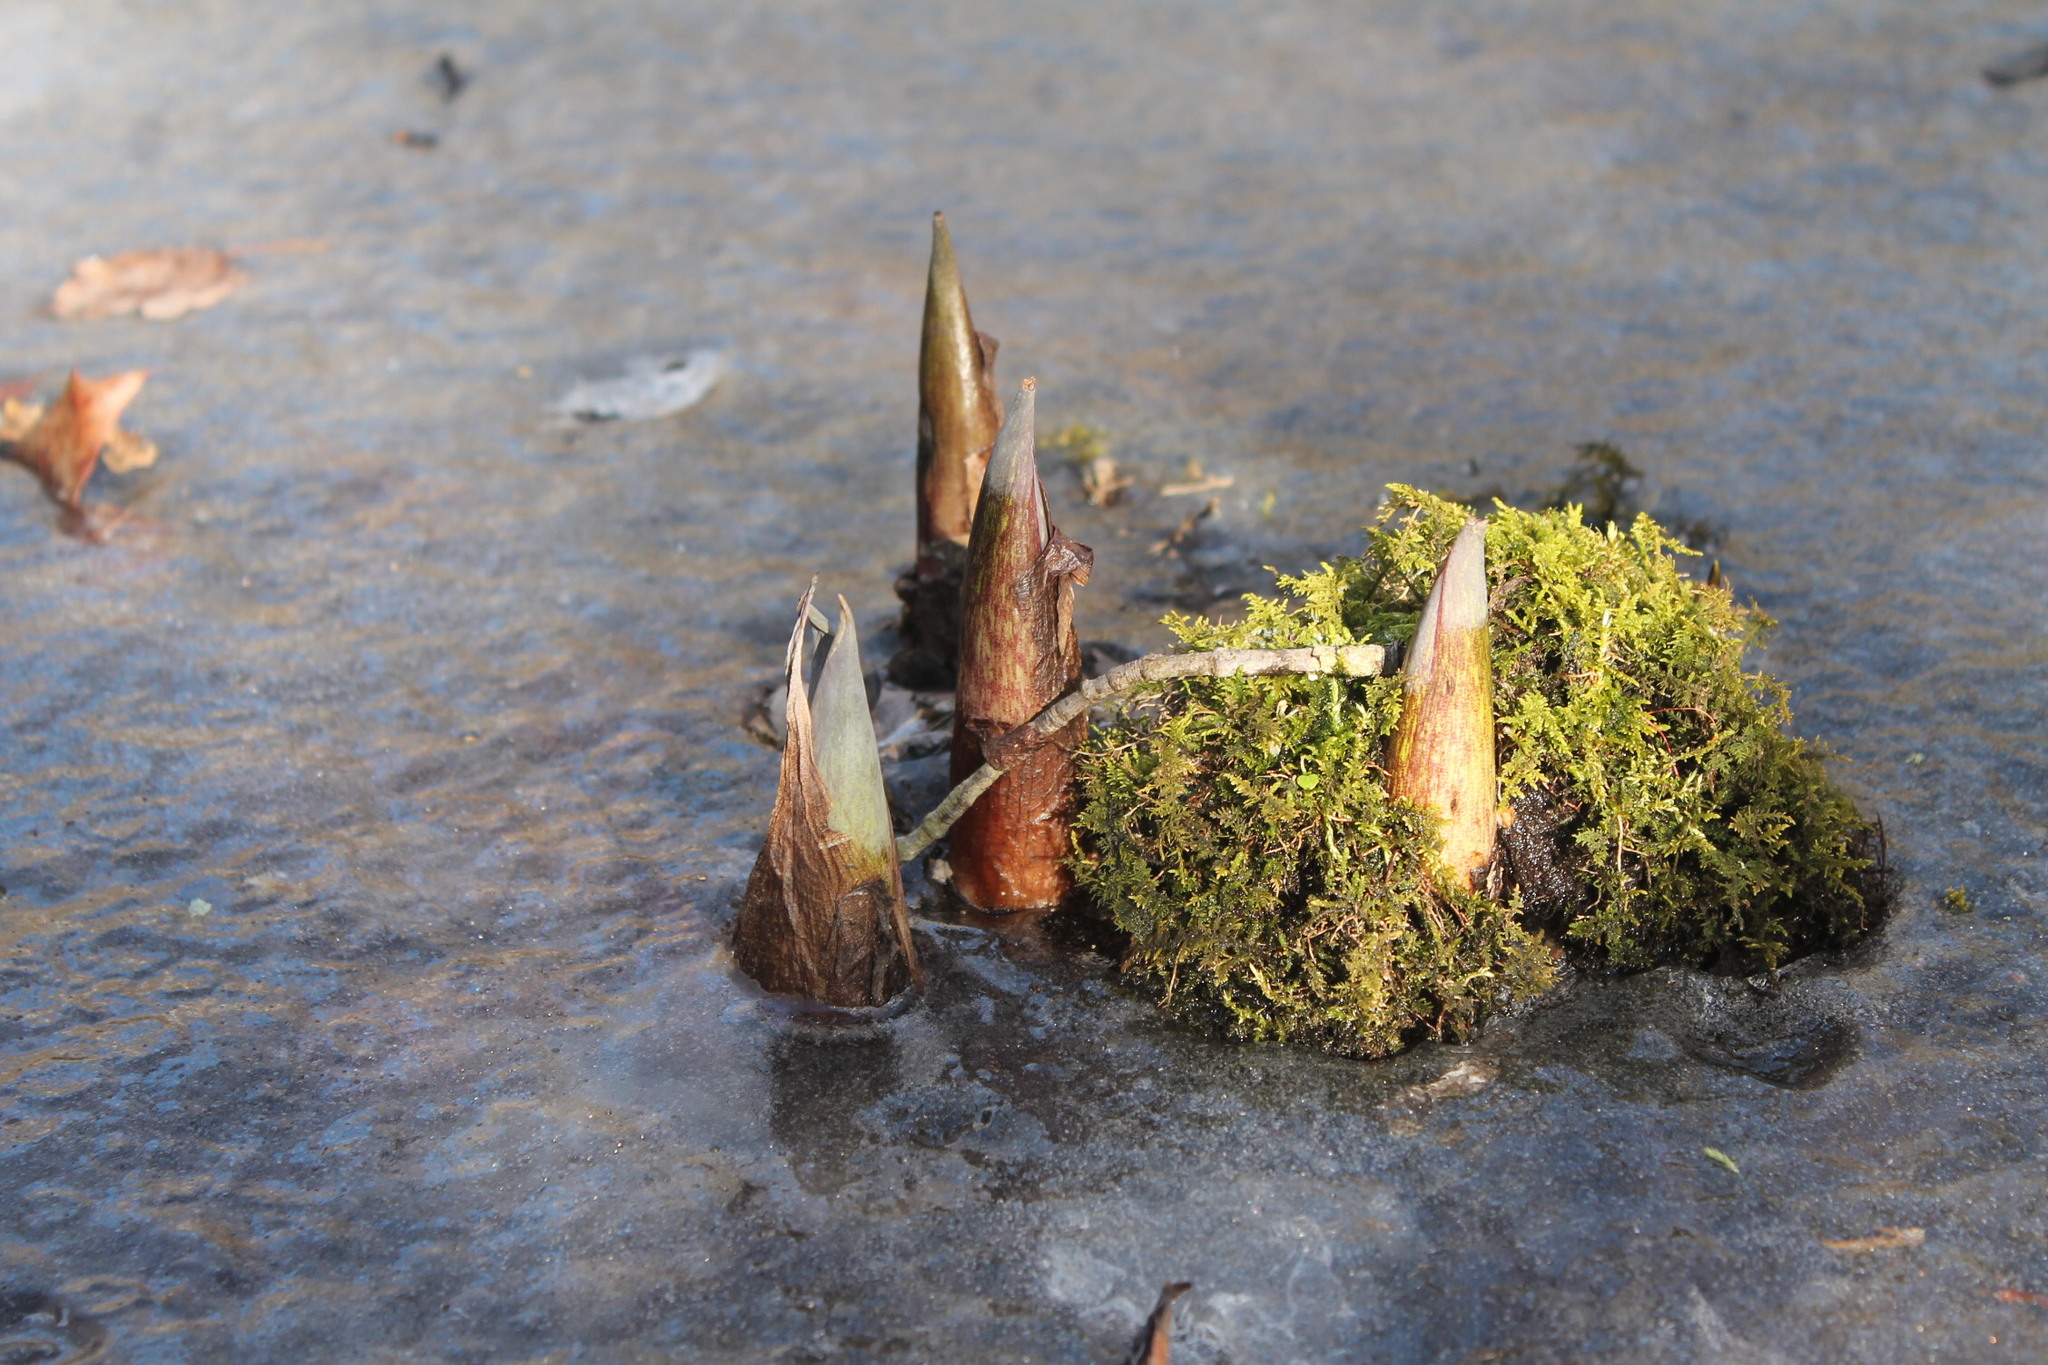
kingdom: Plantae
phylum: Tracheophyta
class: Liliopsida
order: Alismatales
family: Araceae
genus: Symplocarpus
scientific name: Symplocarpus foetidus
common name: Eastern skunk cabbage
